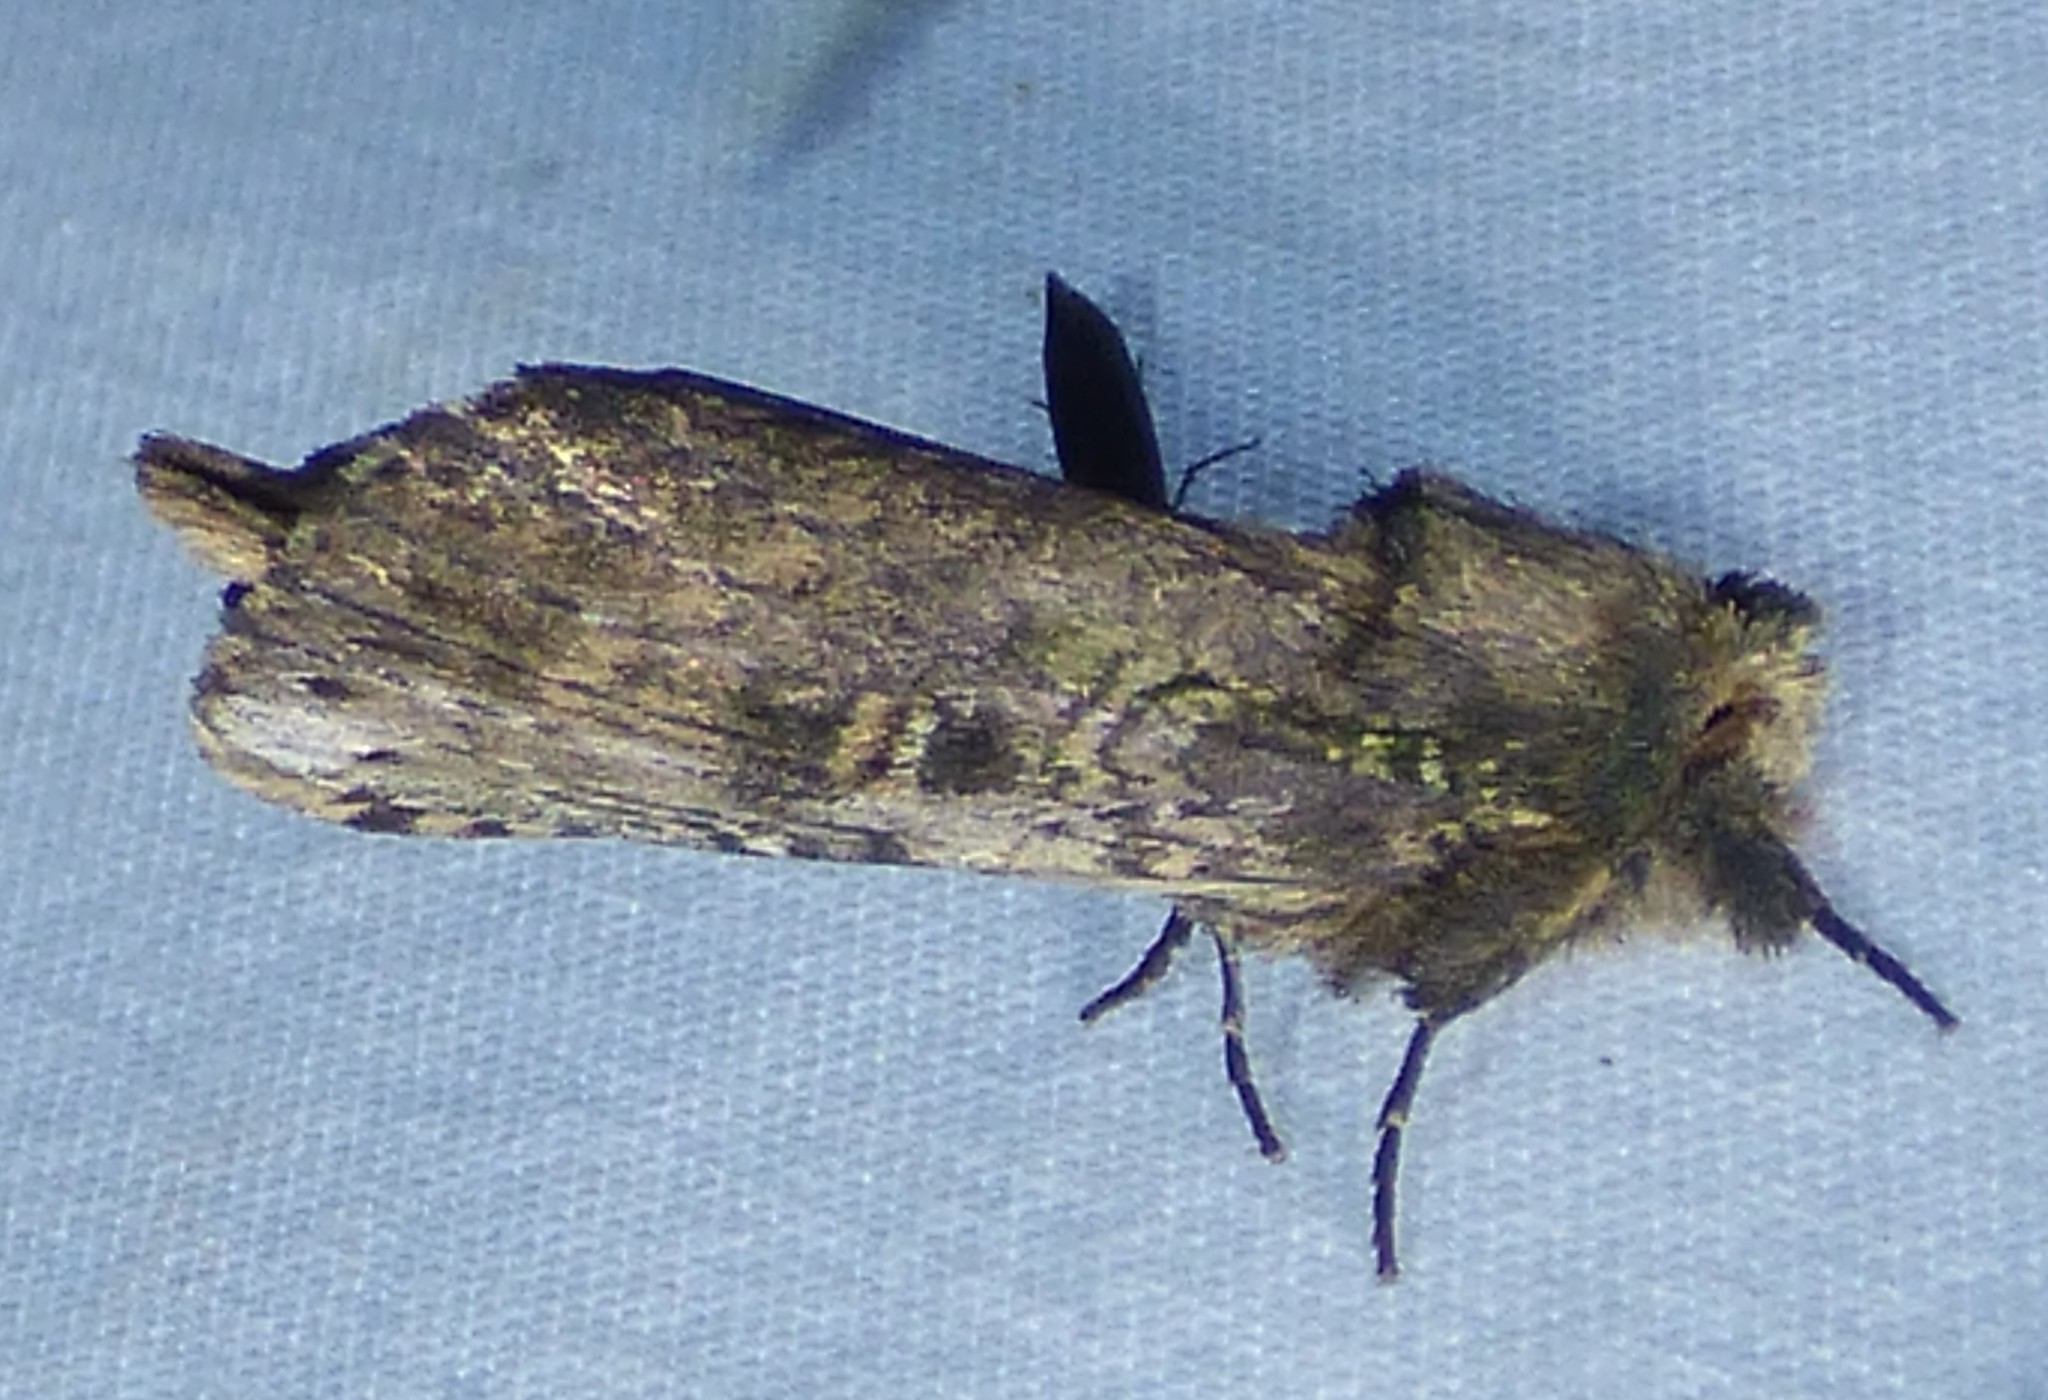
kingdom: Animalia
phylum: Arthropoda
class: Insecta
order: Lepidoptera
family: Notodontidae
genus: Schizura
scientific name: Schizura ipomaeae
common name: Morning-glory prominent
